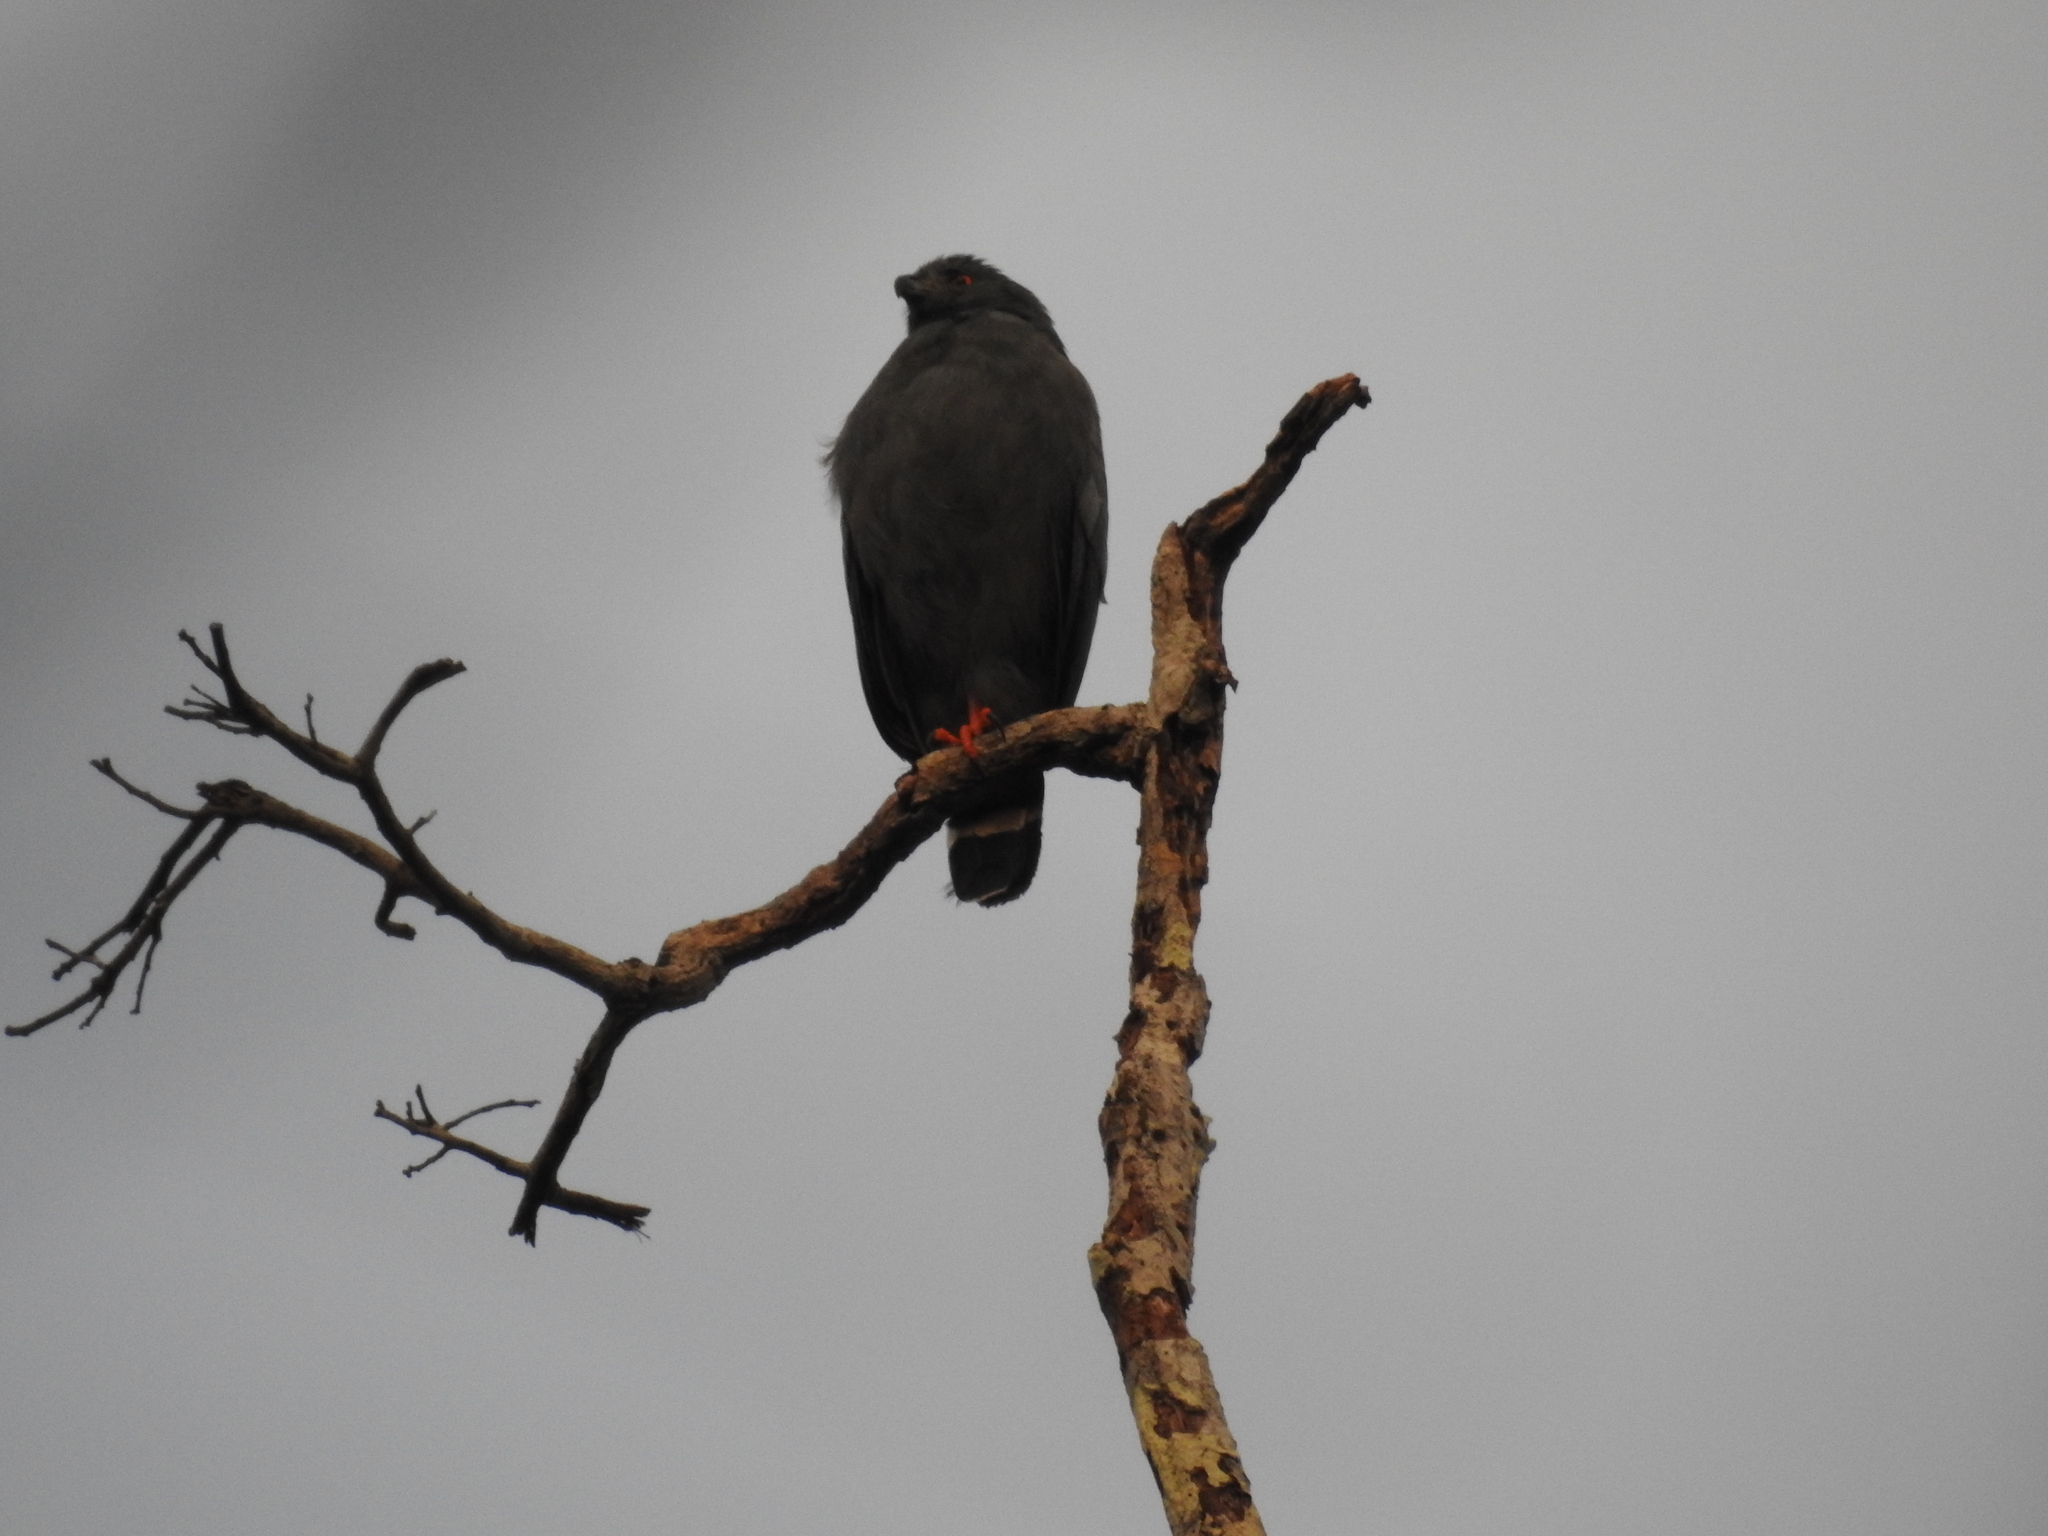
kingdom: Animalia
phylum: Chordata
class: Aves
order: Accipitriformes
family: Accipitridae
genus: Geranospiza
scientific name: Geranospiza caerulescens
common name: Crane hawk
